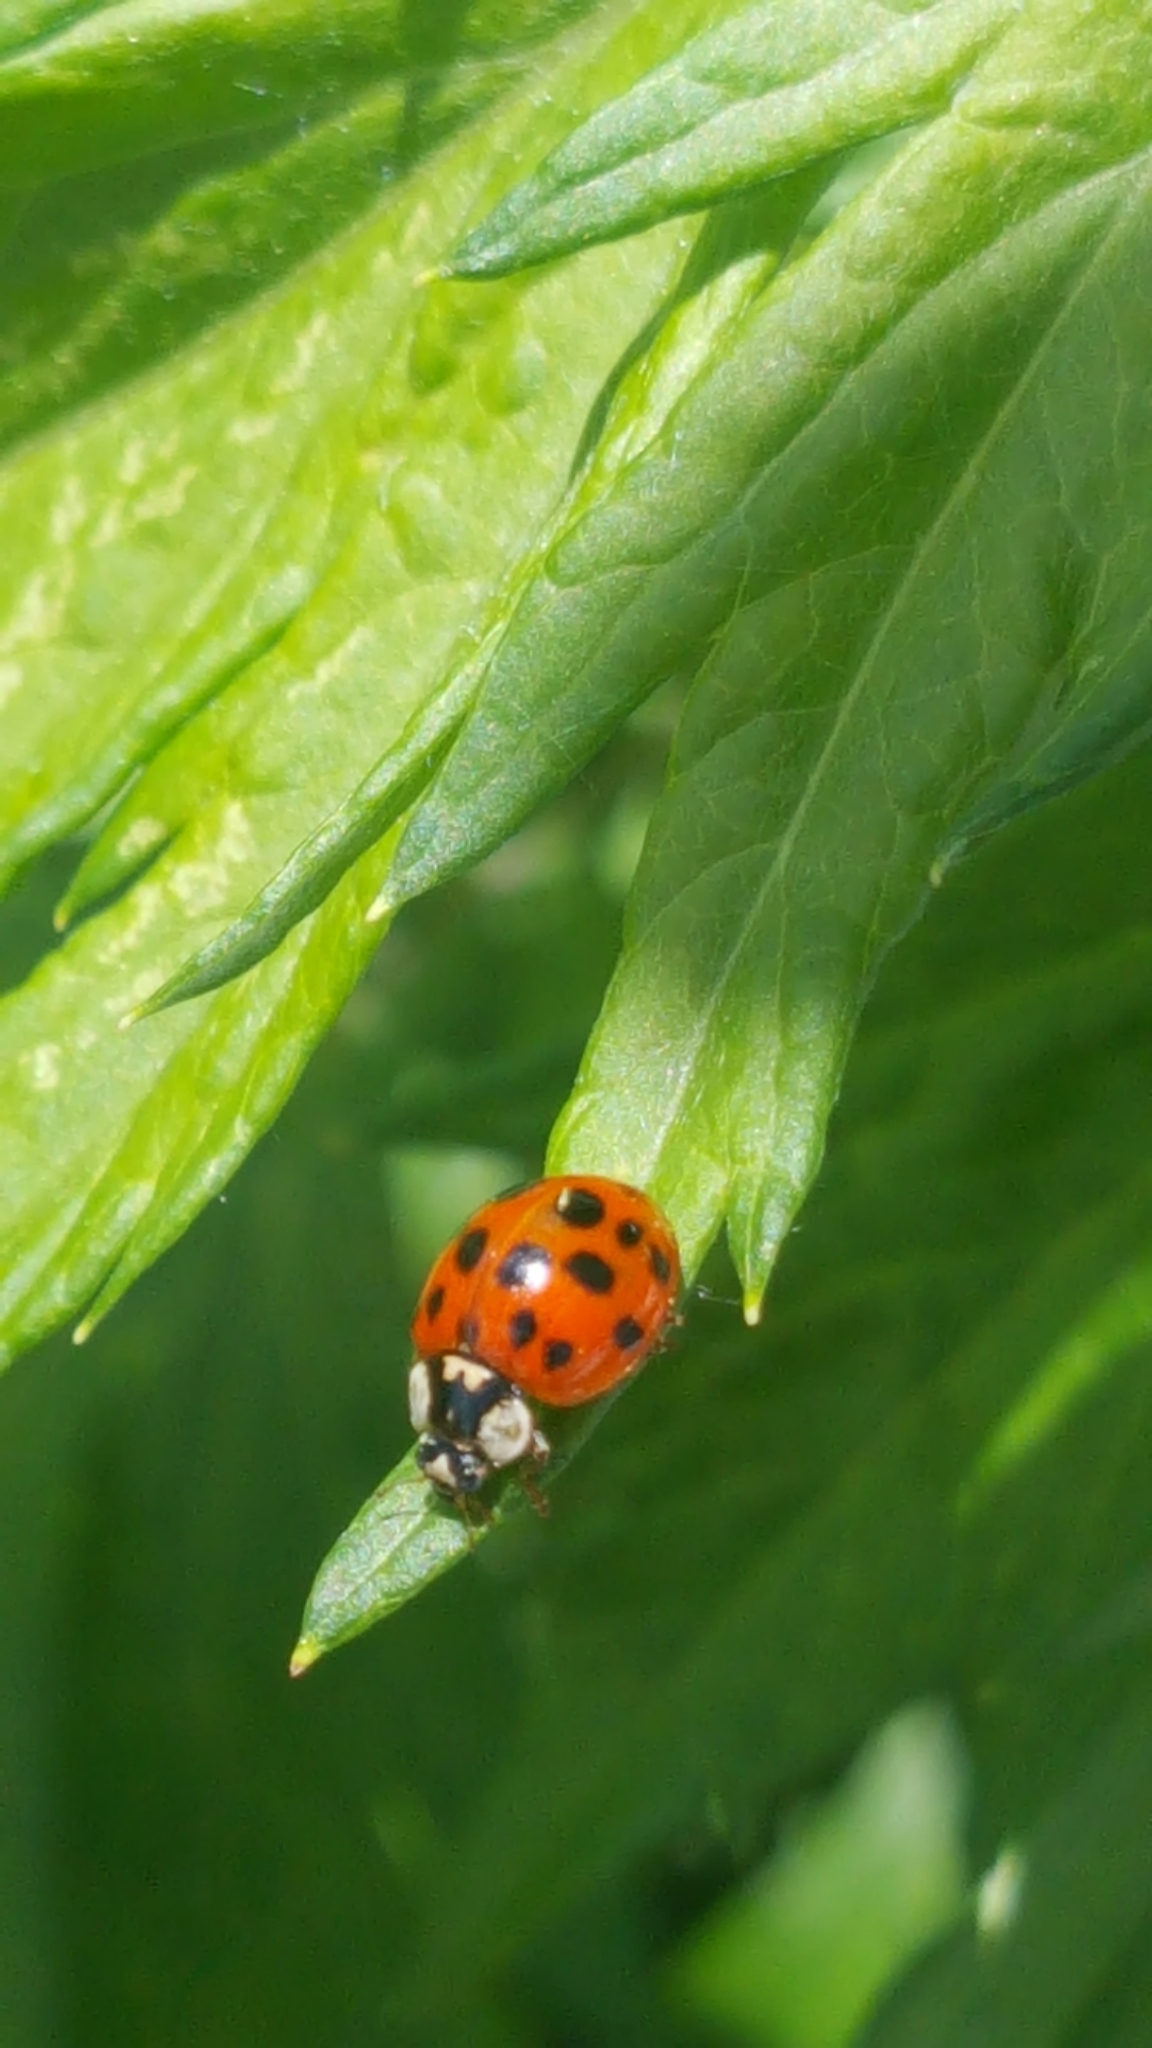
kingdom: Animalia
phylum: Arthropoda
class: Insecta
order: Coleoptera
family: Coccinellidae
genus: Harmonia
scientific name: Harmonia axyridis
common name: Harlequin ladybird
